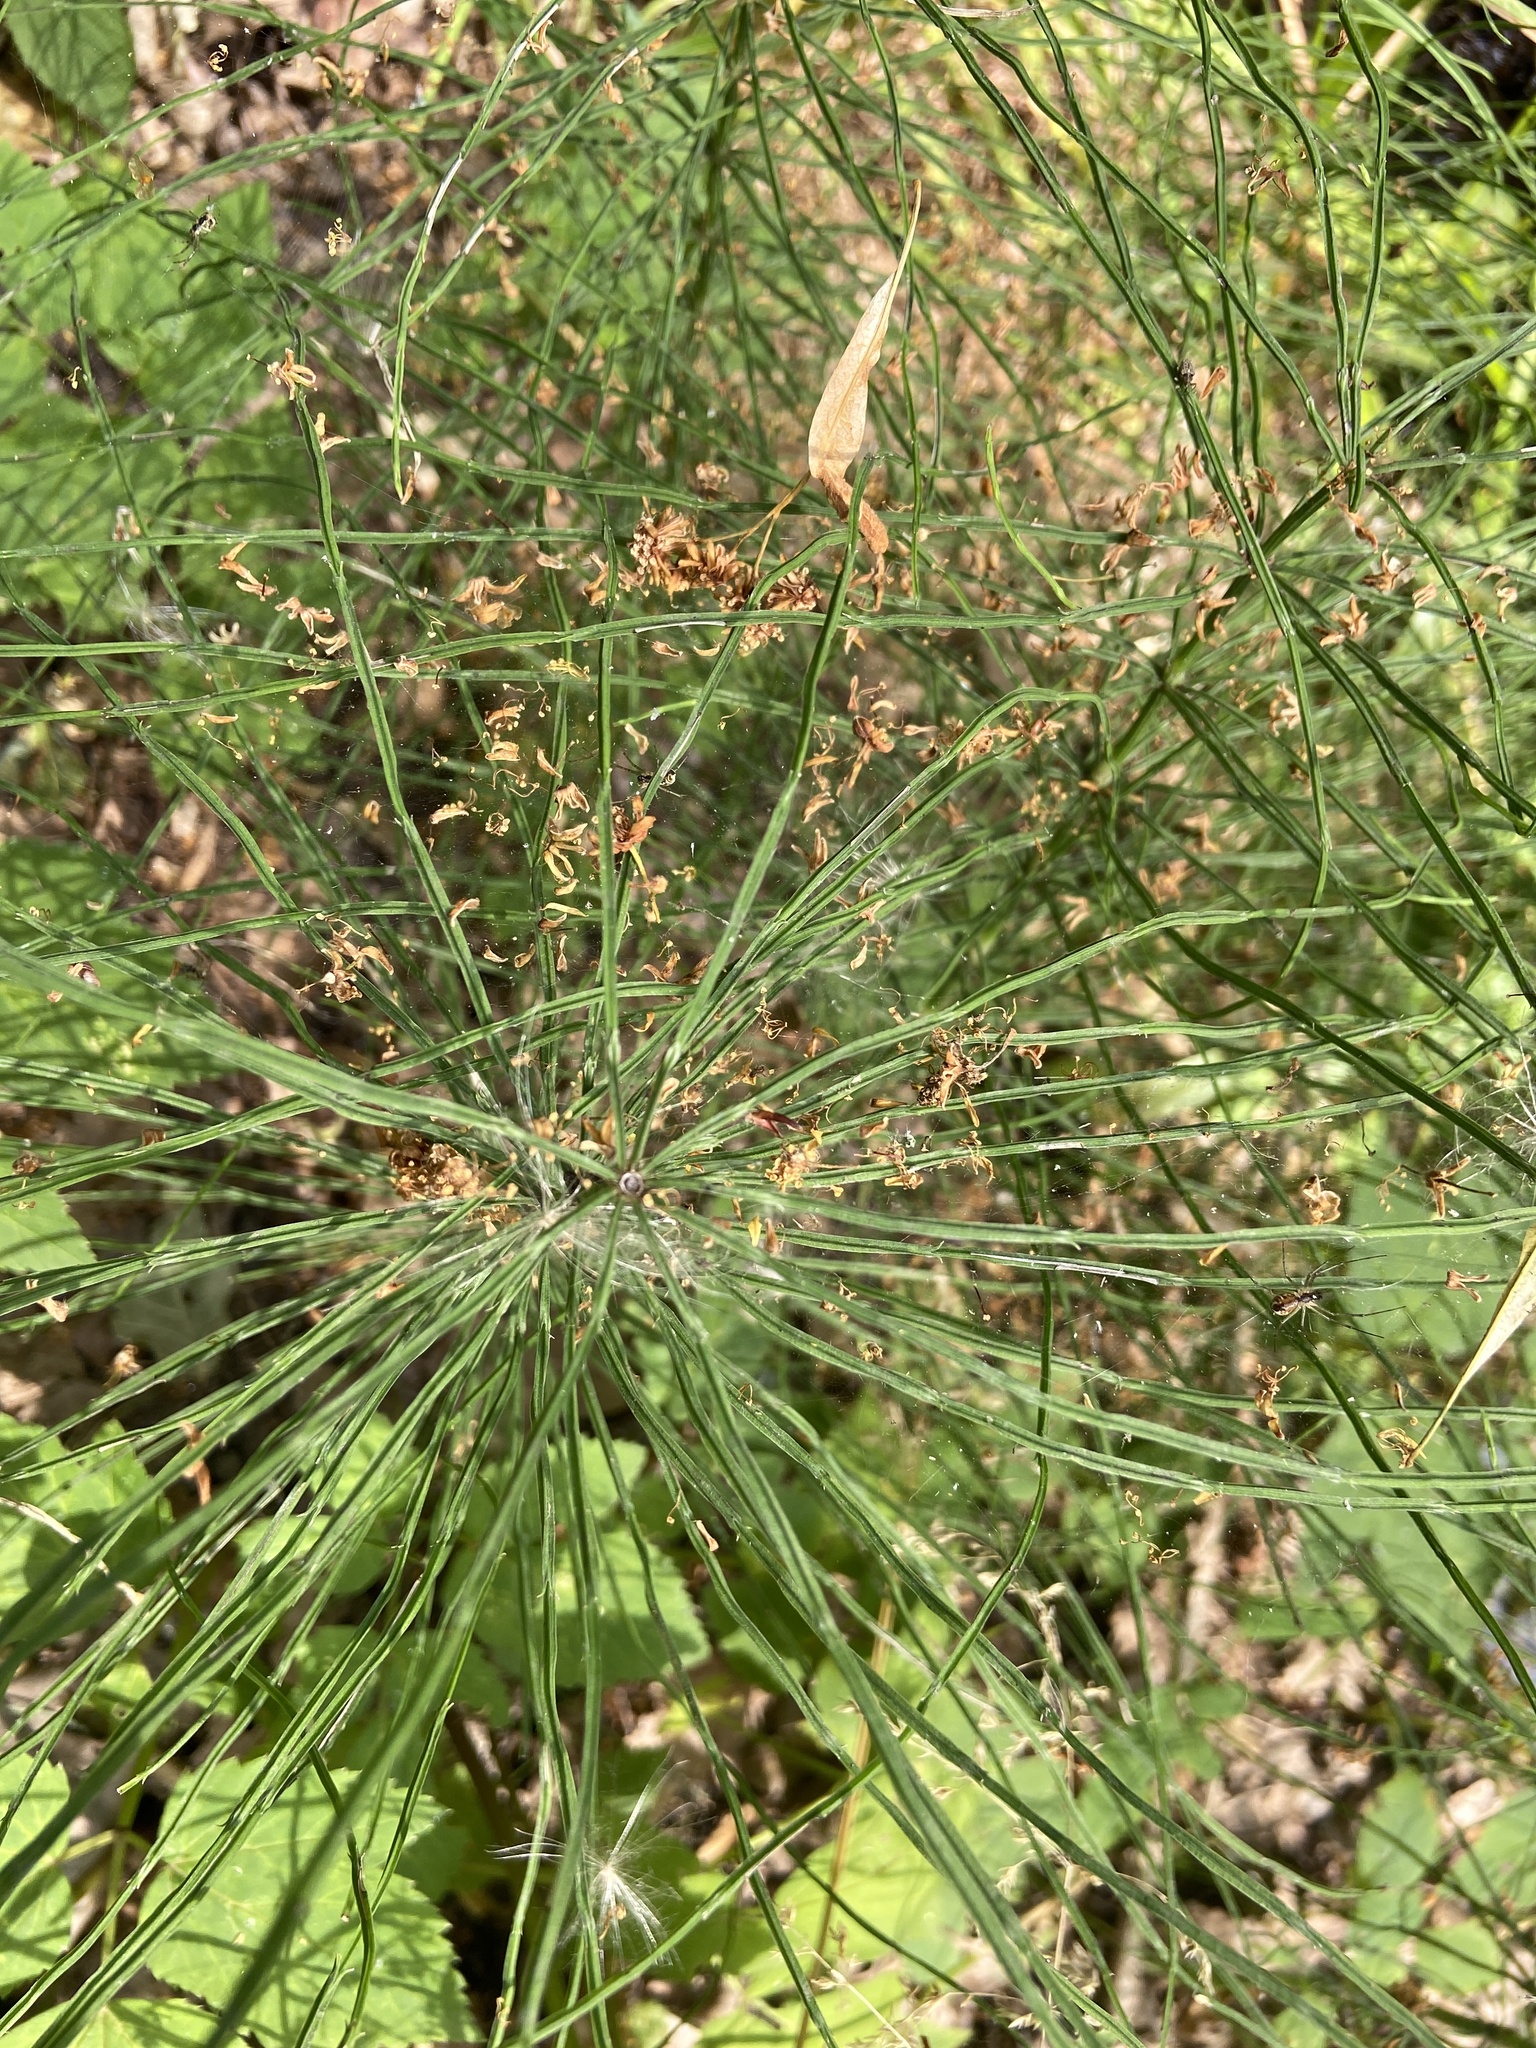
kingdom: Plantae
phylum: Tracheophyta
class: Polypodiopsida
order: Equisetales
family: Equisetaceae
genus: Equisetum
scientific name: Equisetum arvense
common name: Field horsetail
